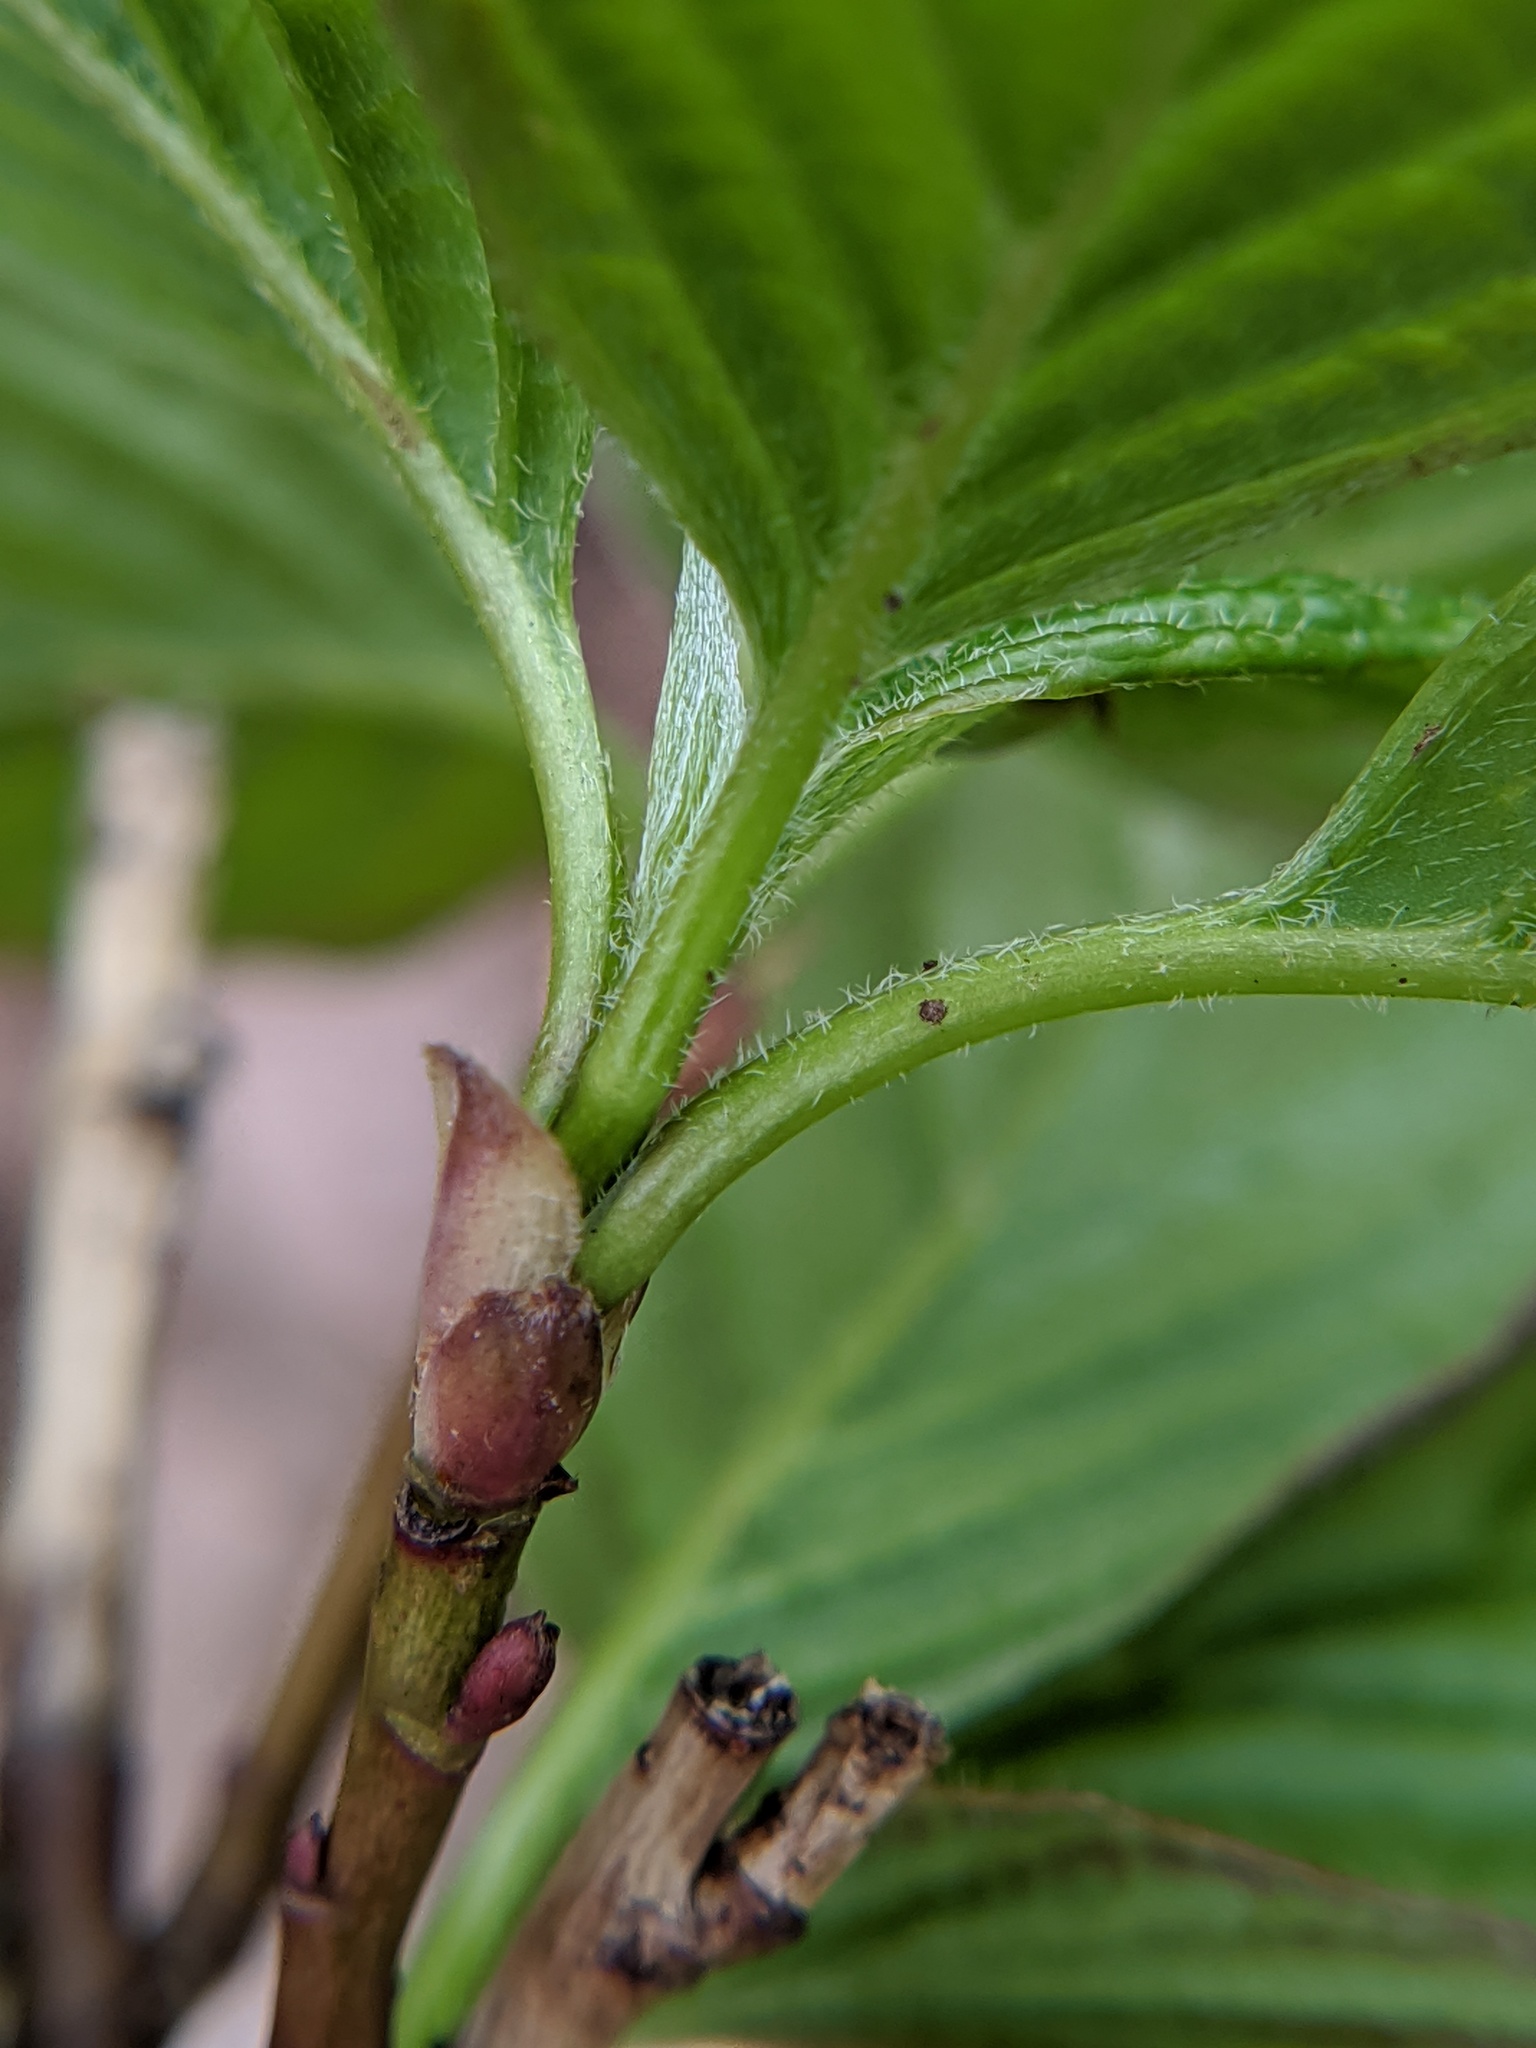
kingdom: Plantae
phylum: Tracheophyta
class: Magnoliopsida
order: Cornales
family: Cornaceae
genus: Cornus
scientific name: Cornus alternifolia
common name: Pagoda dogwood
